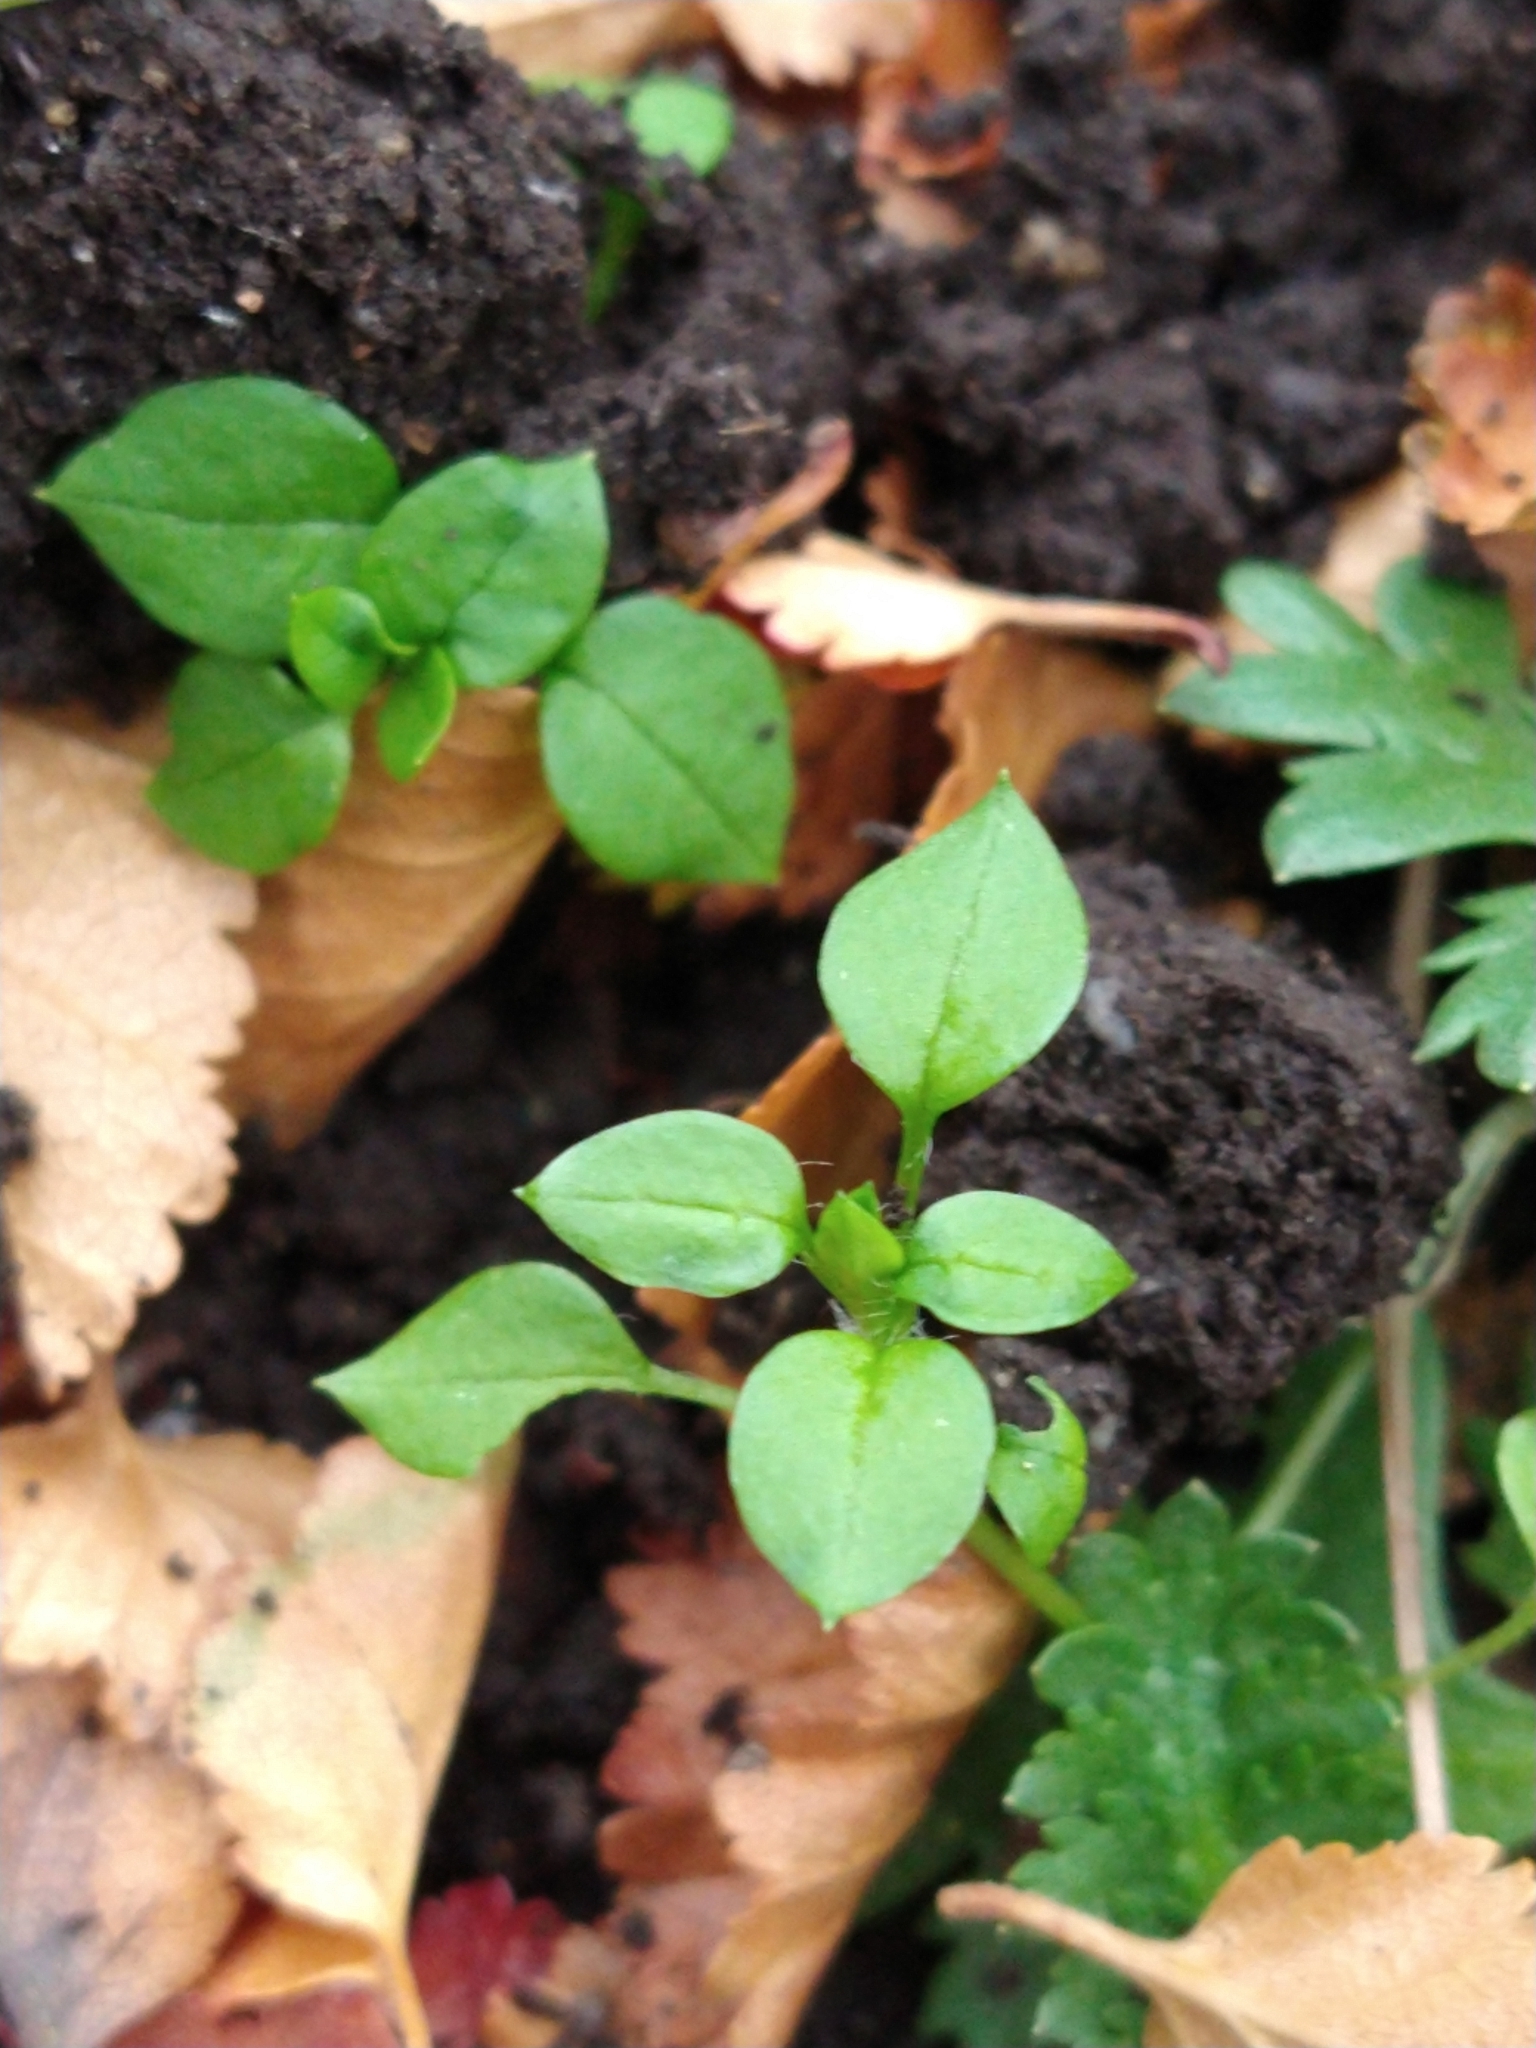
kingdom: Plantae
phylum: Tracheophyta
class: Magnoliopsida
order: Caryophyllales
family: Caryophyllaceae
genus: Stellaria
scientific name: Stellaria media
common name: Common chickweed
